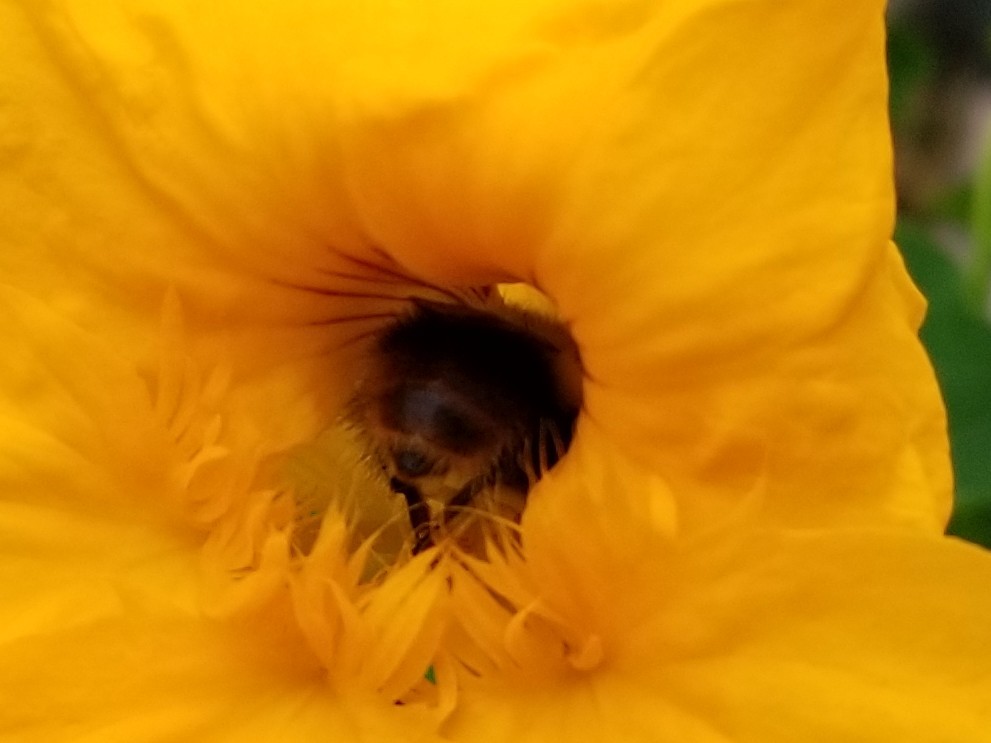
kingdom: Animalia
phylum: Arthropoda
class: Insecta
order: Hymenoptera
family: Apidae
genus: Bombus
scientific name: Bombus frigidus
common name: Frigid bumble bee
